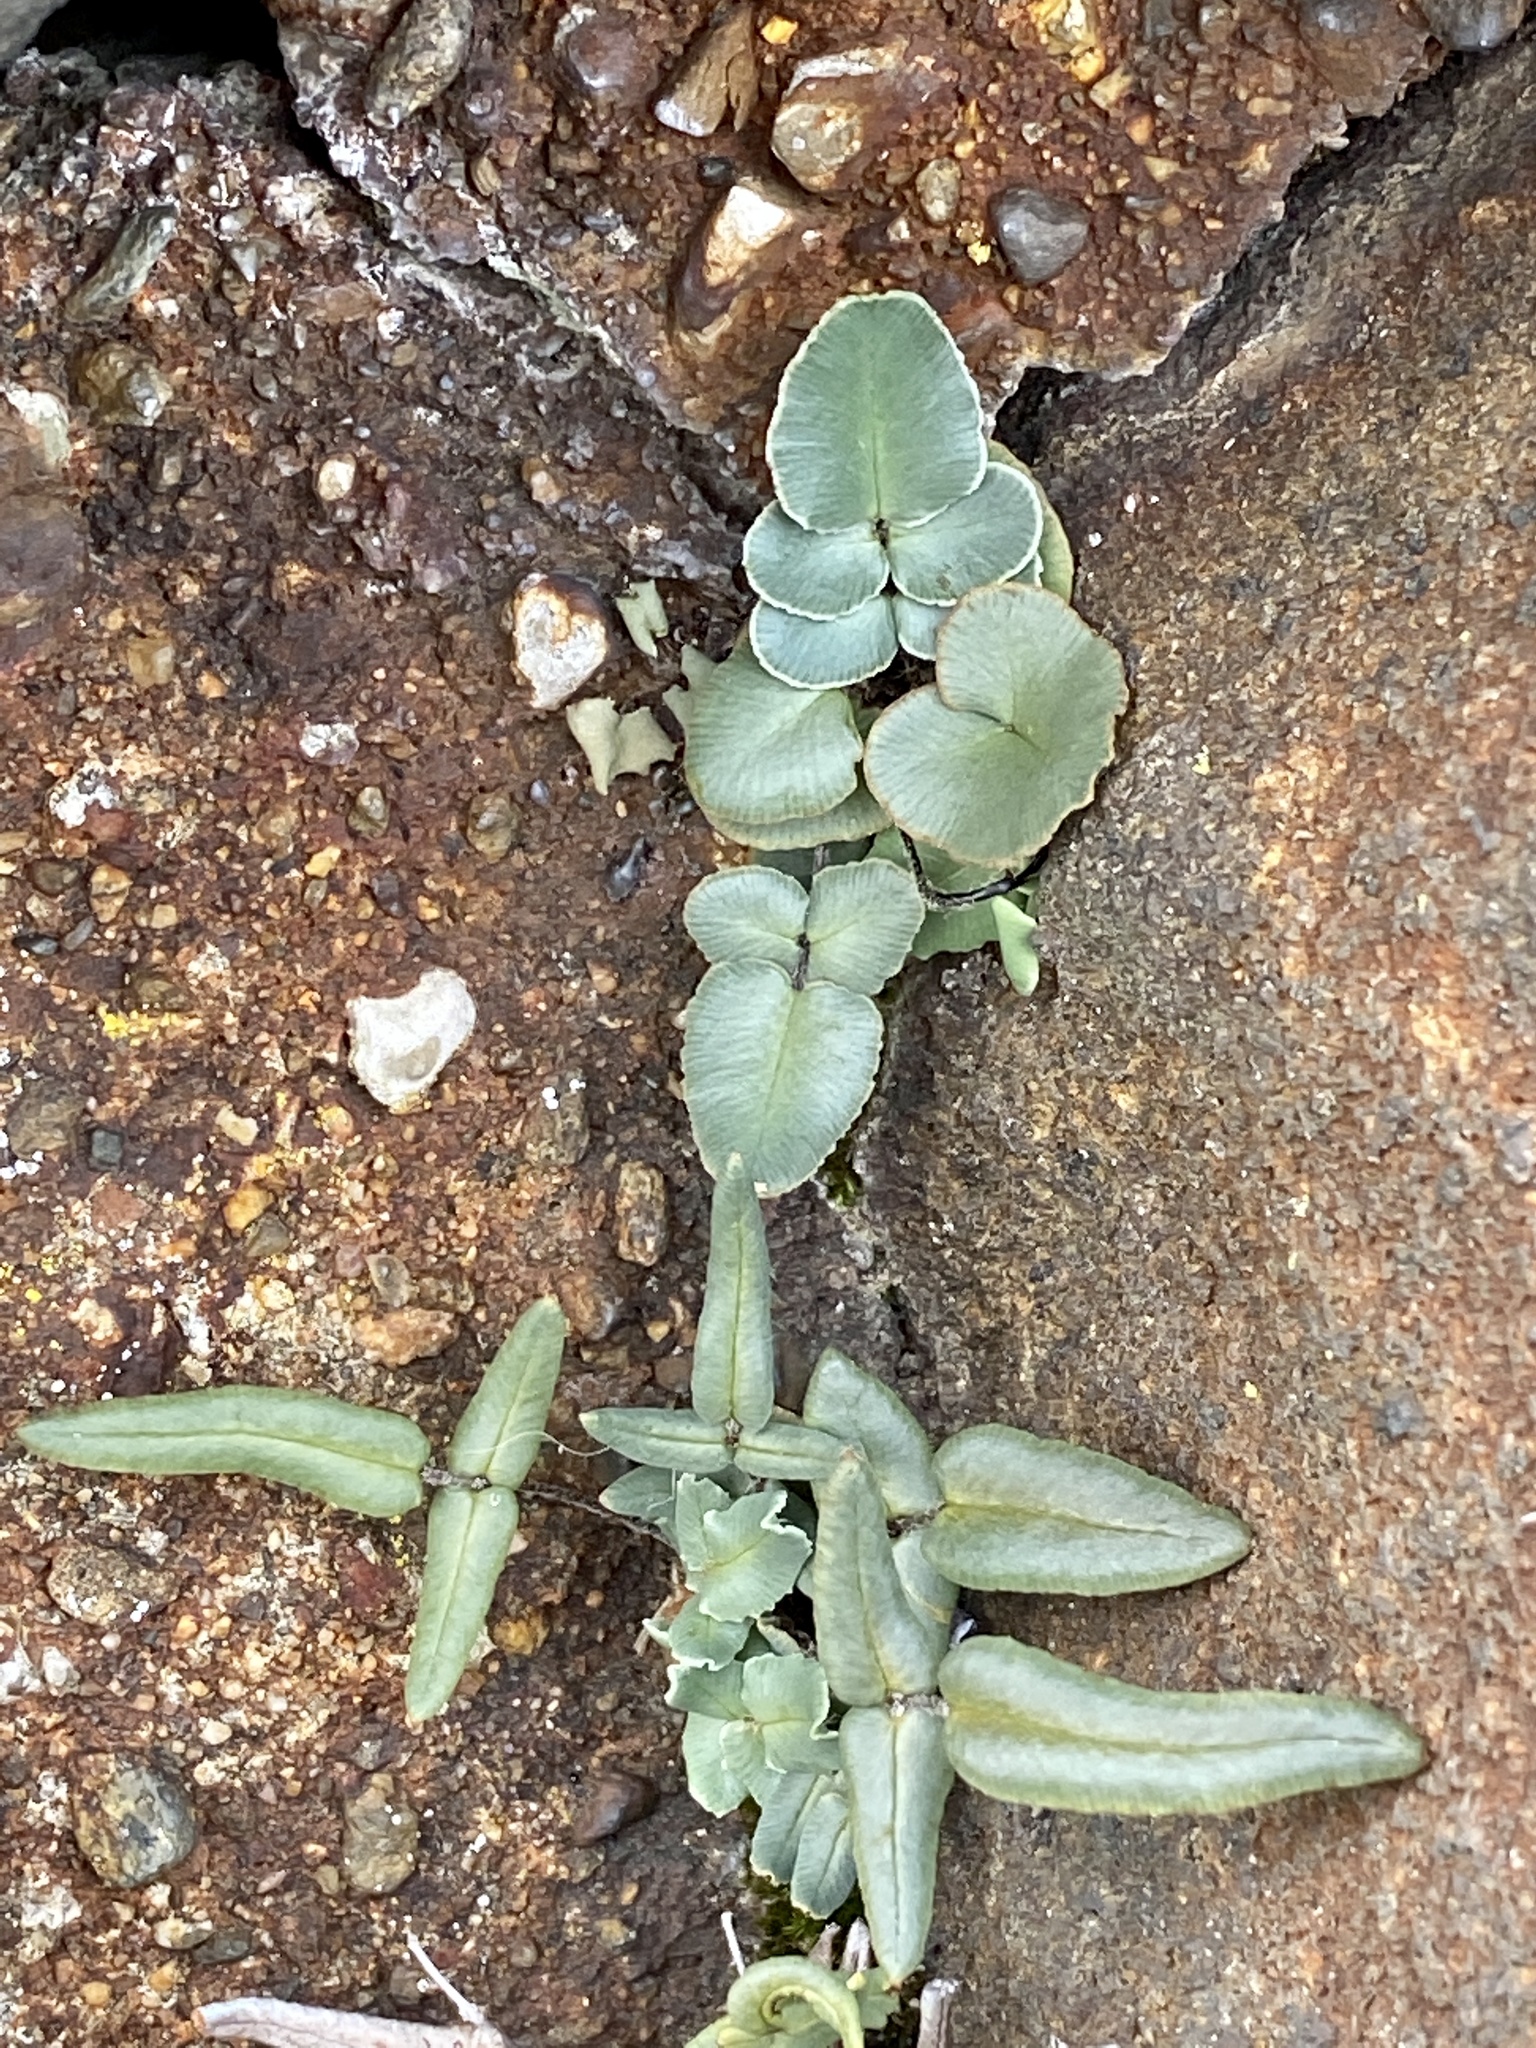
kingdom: Plantae
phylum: Tracheophyta
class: Polypodiopsida
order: Polypodiales
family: Pteridaceae
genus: Pellaea
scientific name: Pellaea atropurpurea
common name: Hairy cliffbrake
